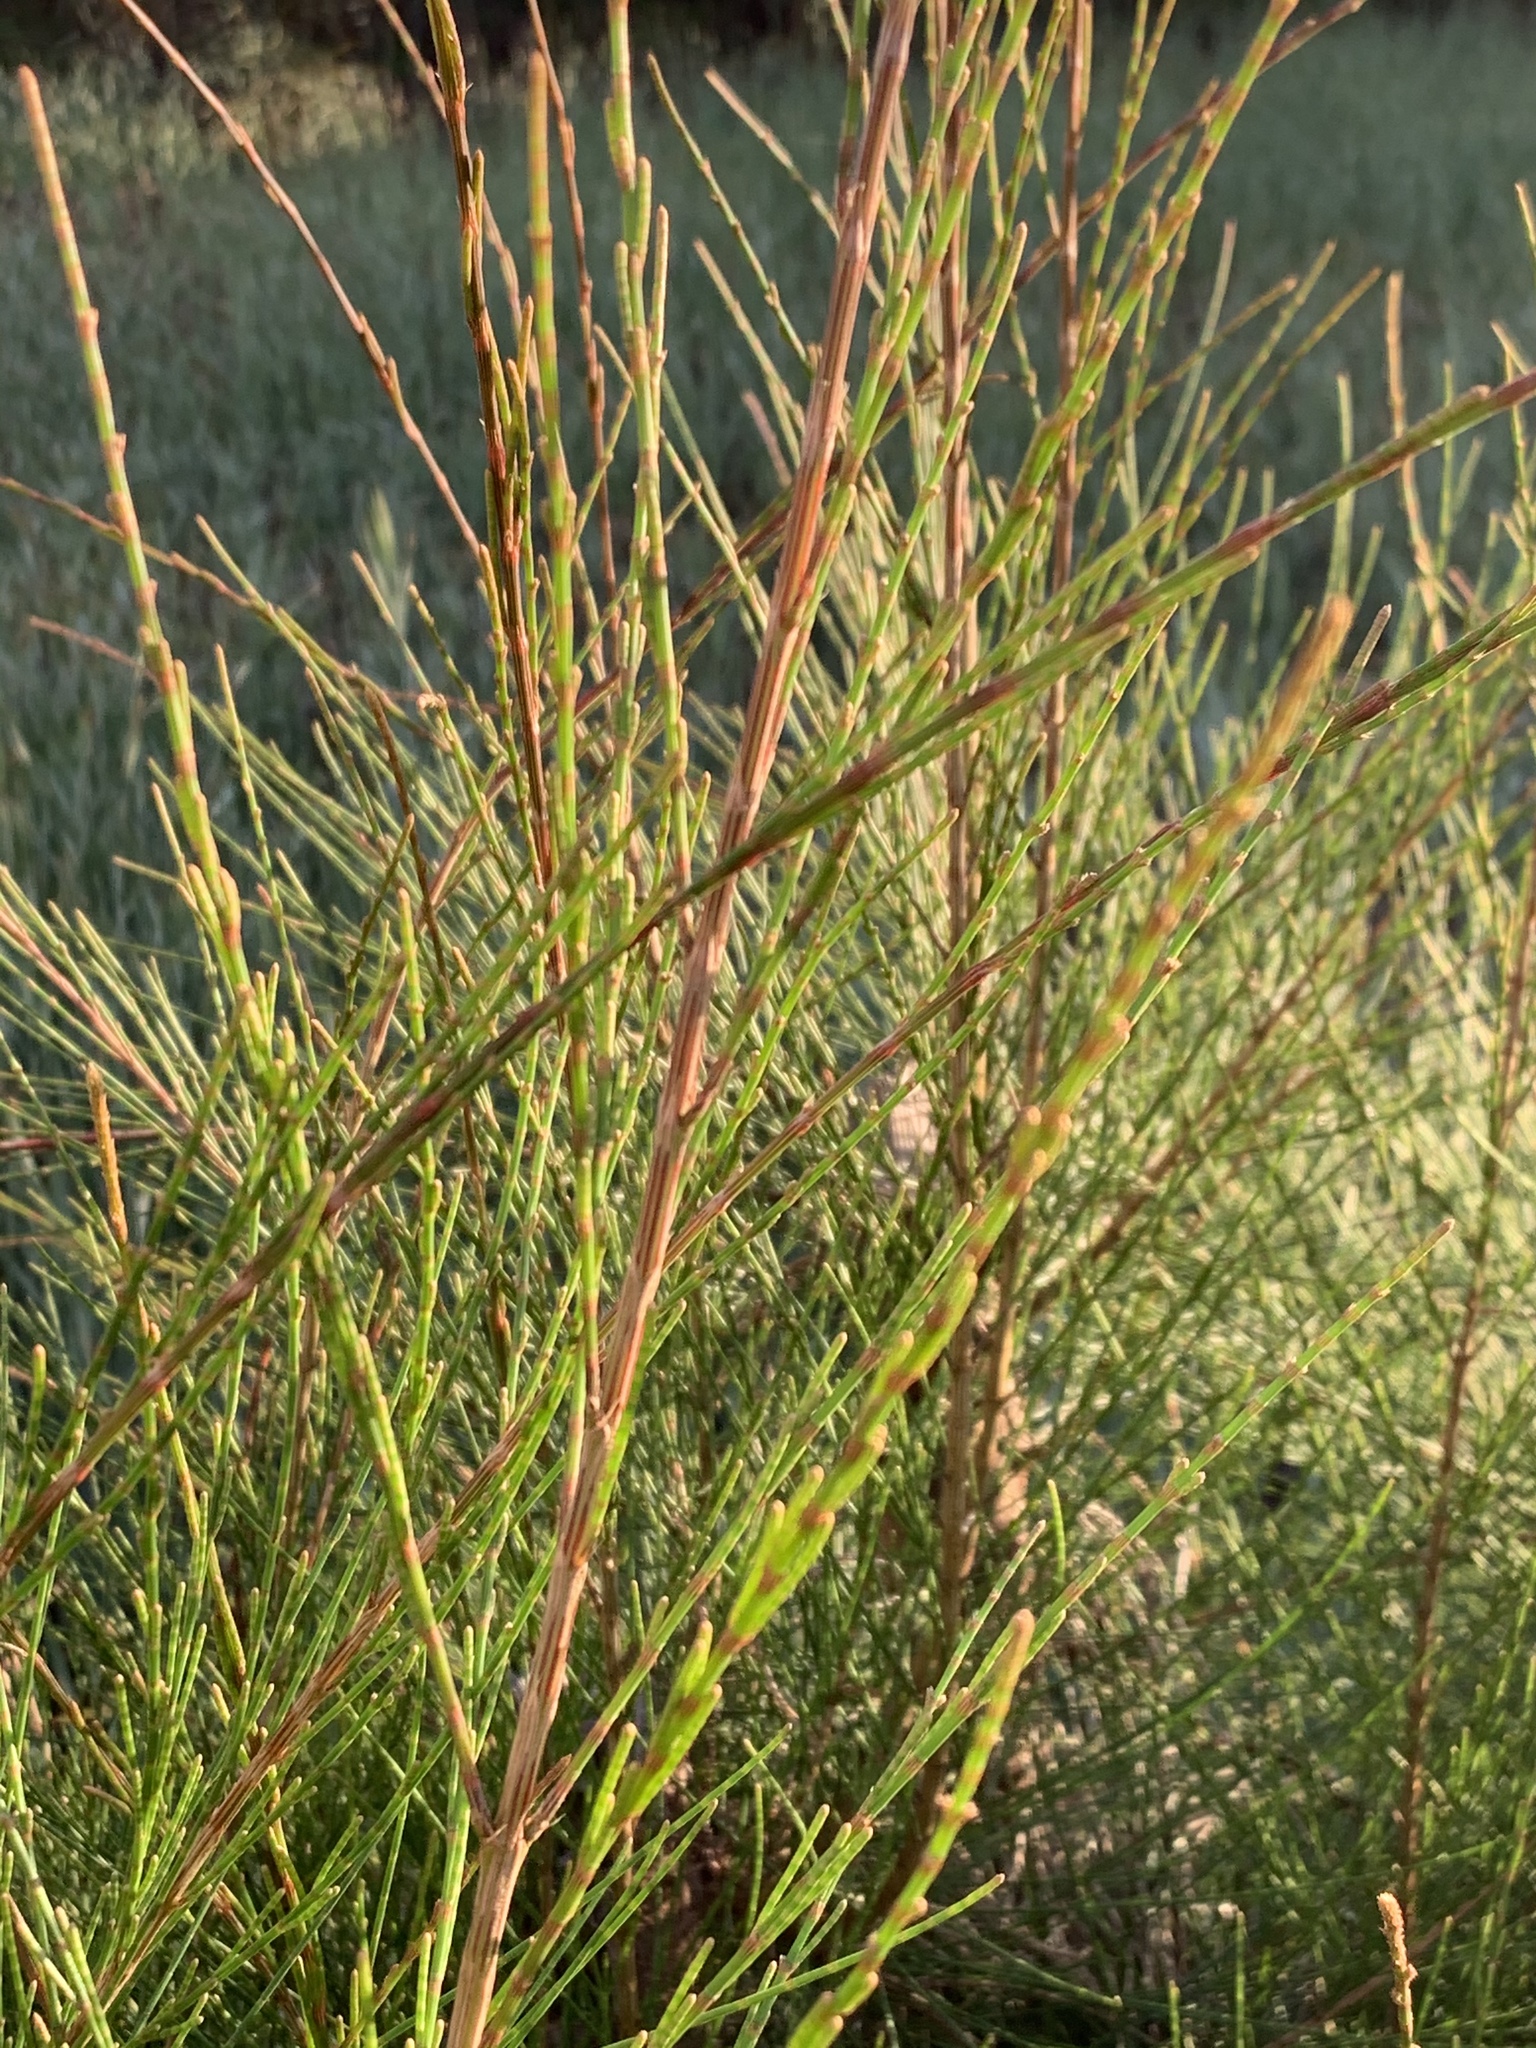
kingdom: Plantae
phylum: Tracheophyta
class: Magnoliopsida
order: Fagales
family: Casuarinaceae
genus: Casuarina
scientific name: Casuarina cunninghamiana
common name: River sheoak
